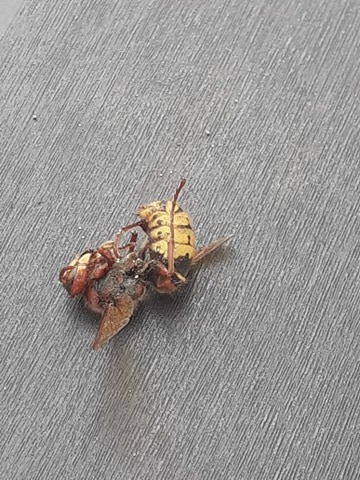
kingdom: Animalia
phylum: Arthropoda
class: Insecta
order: Hymenoptera
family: Vespidae
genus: Vespa
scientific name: Vespa crabro
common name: Hornet
